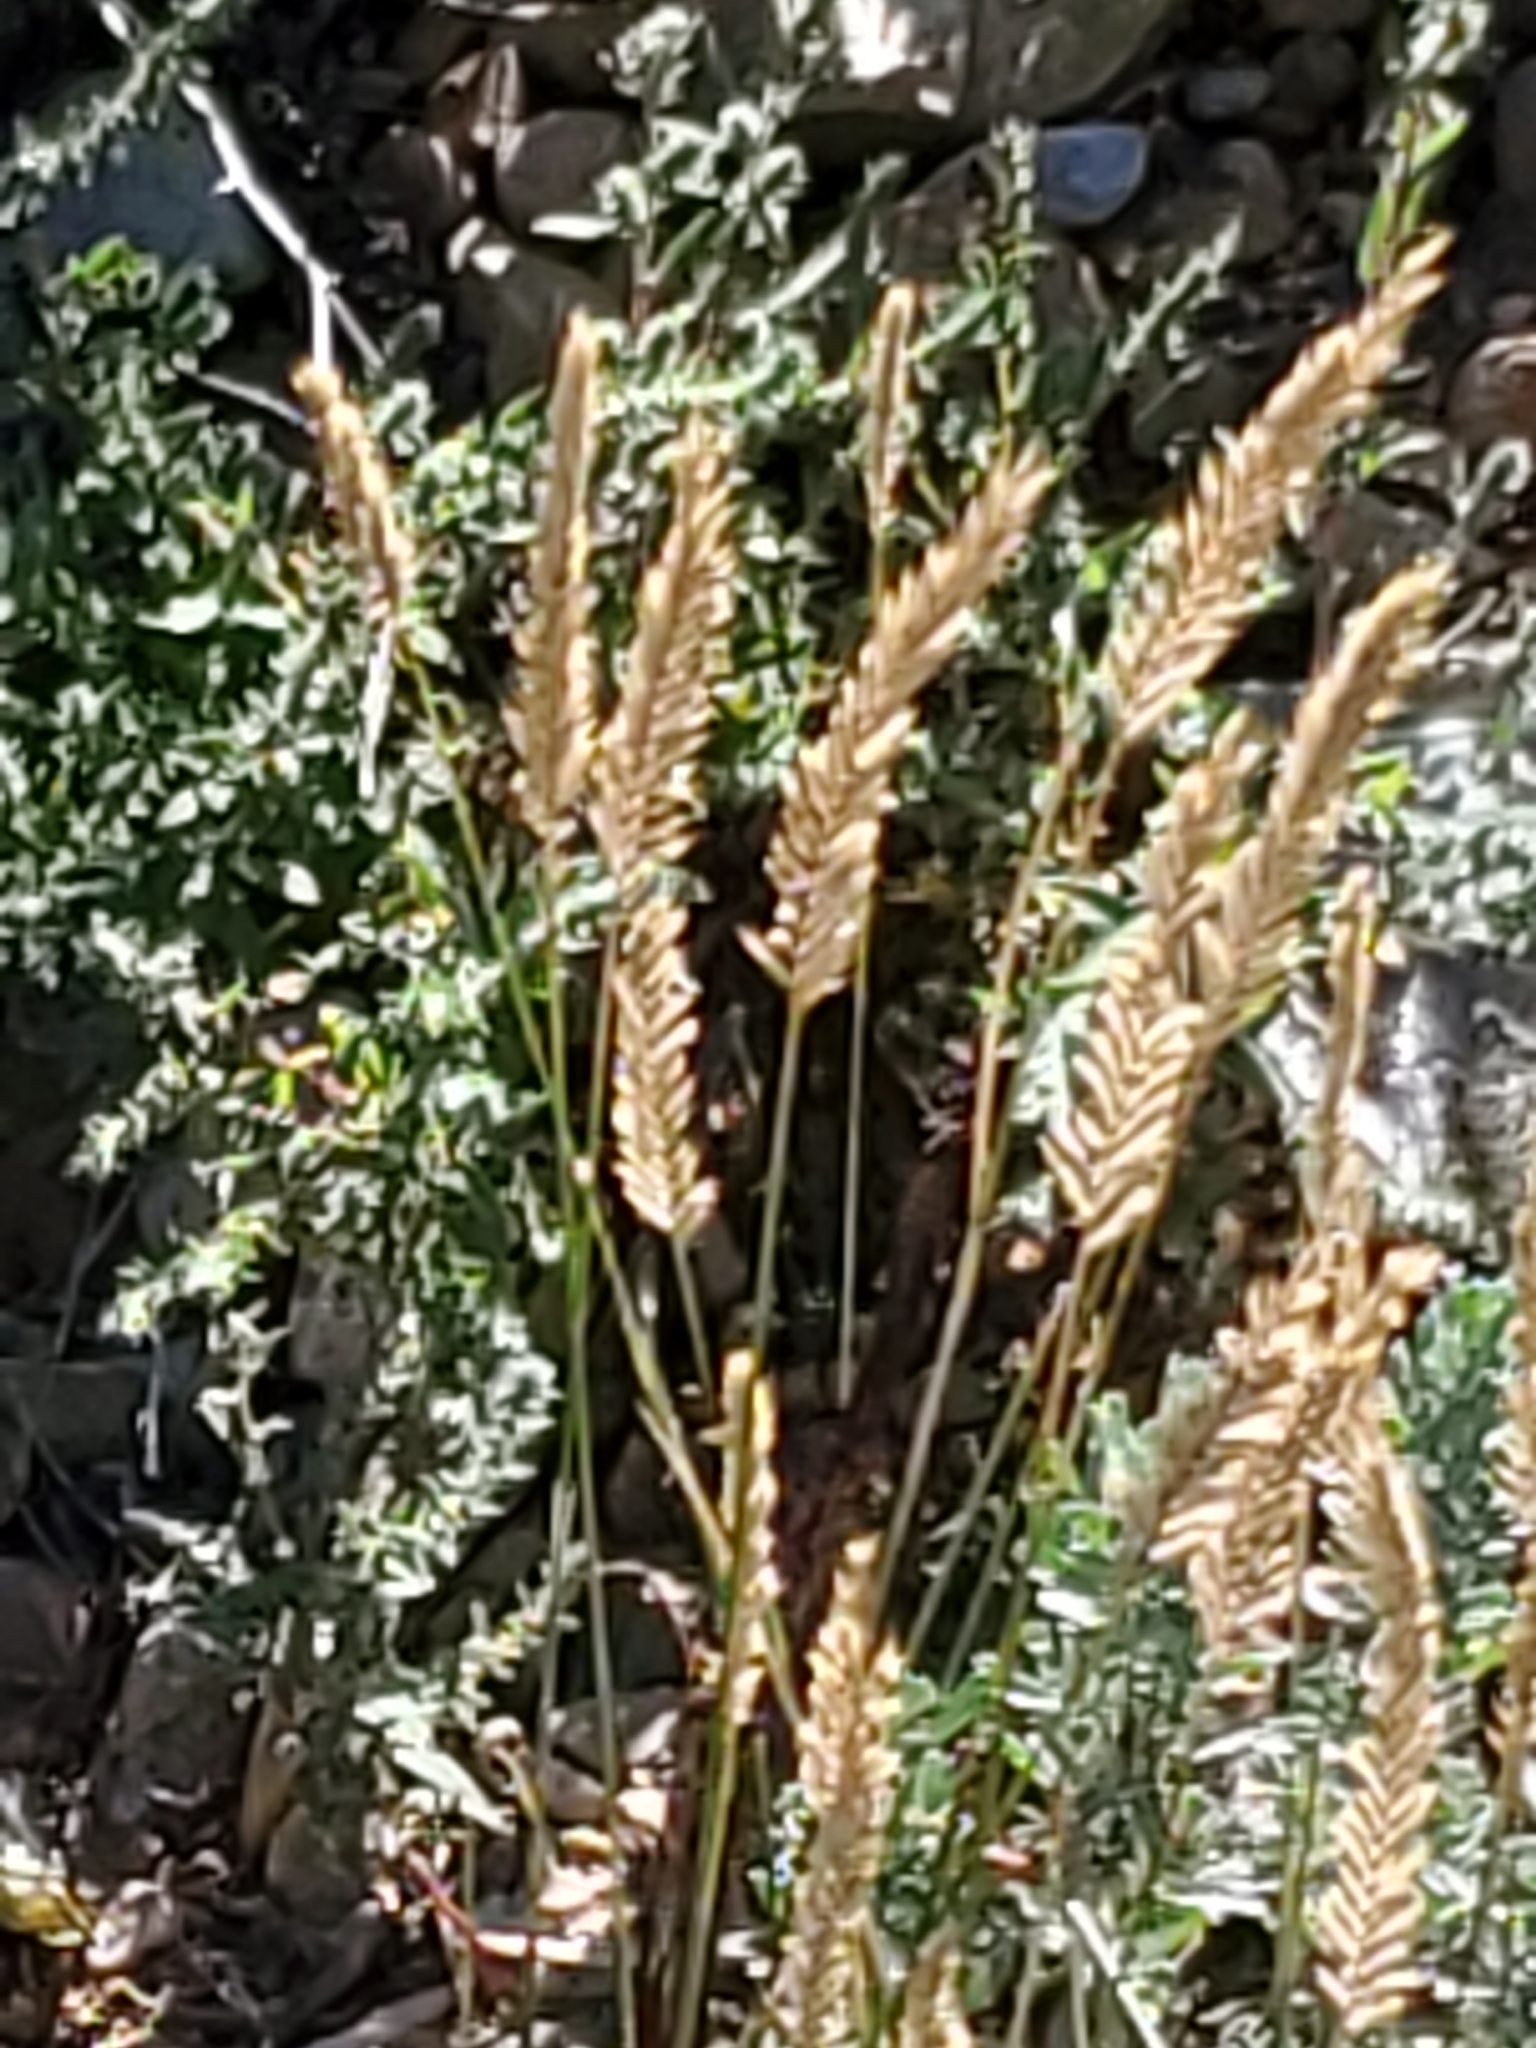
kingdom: Plantae
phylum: Tracheophyta
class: Liliopsida
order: Poales
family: Poaceae
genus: Agropyron
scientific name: Agropyron cristatum
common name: Crested wheatgrass
